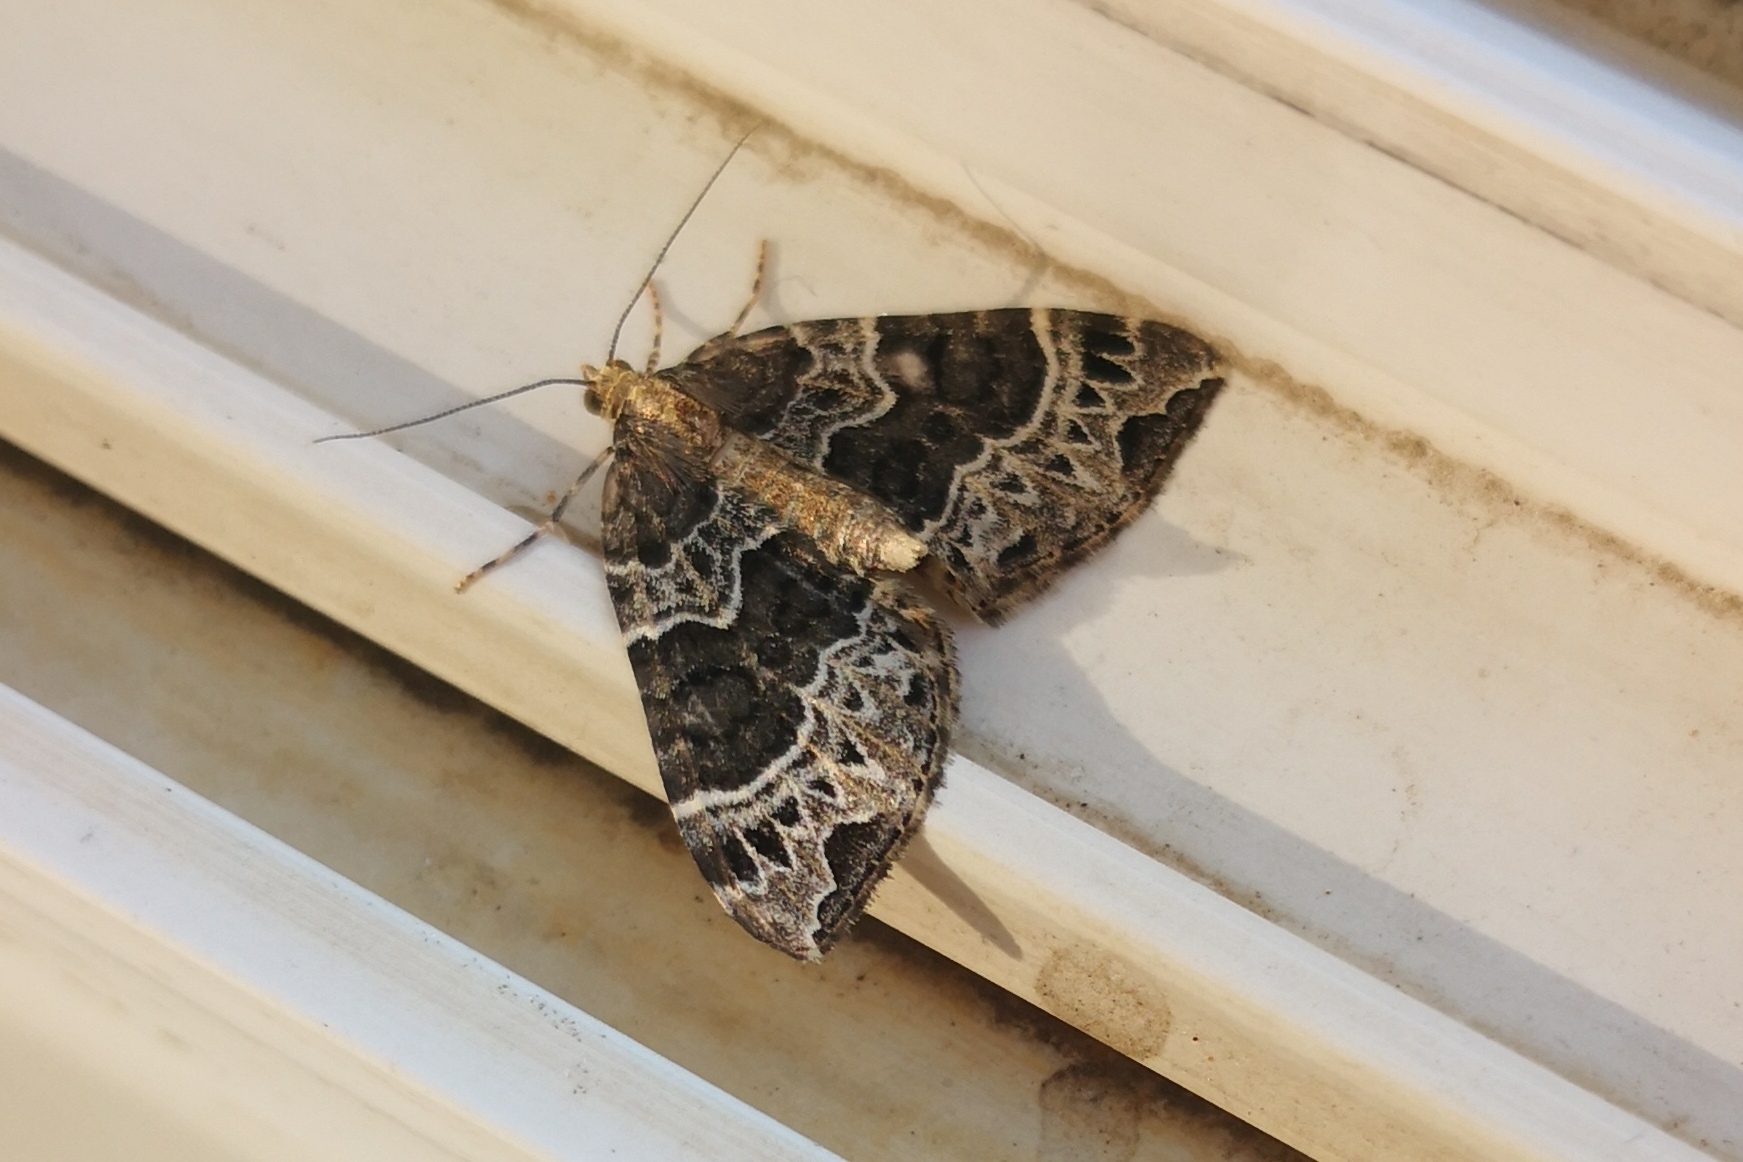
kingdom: Animalia
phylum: Arthropoda
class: Insecta
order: Lepidoptera
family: Geometridae
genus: Ecliptopera
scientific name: Ecliptopera silaceata
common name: Small phoenix
